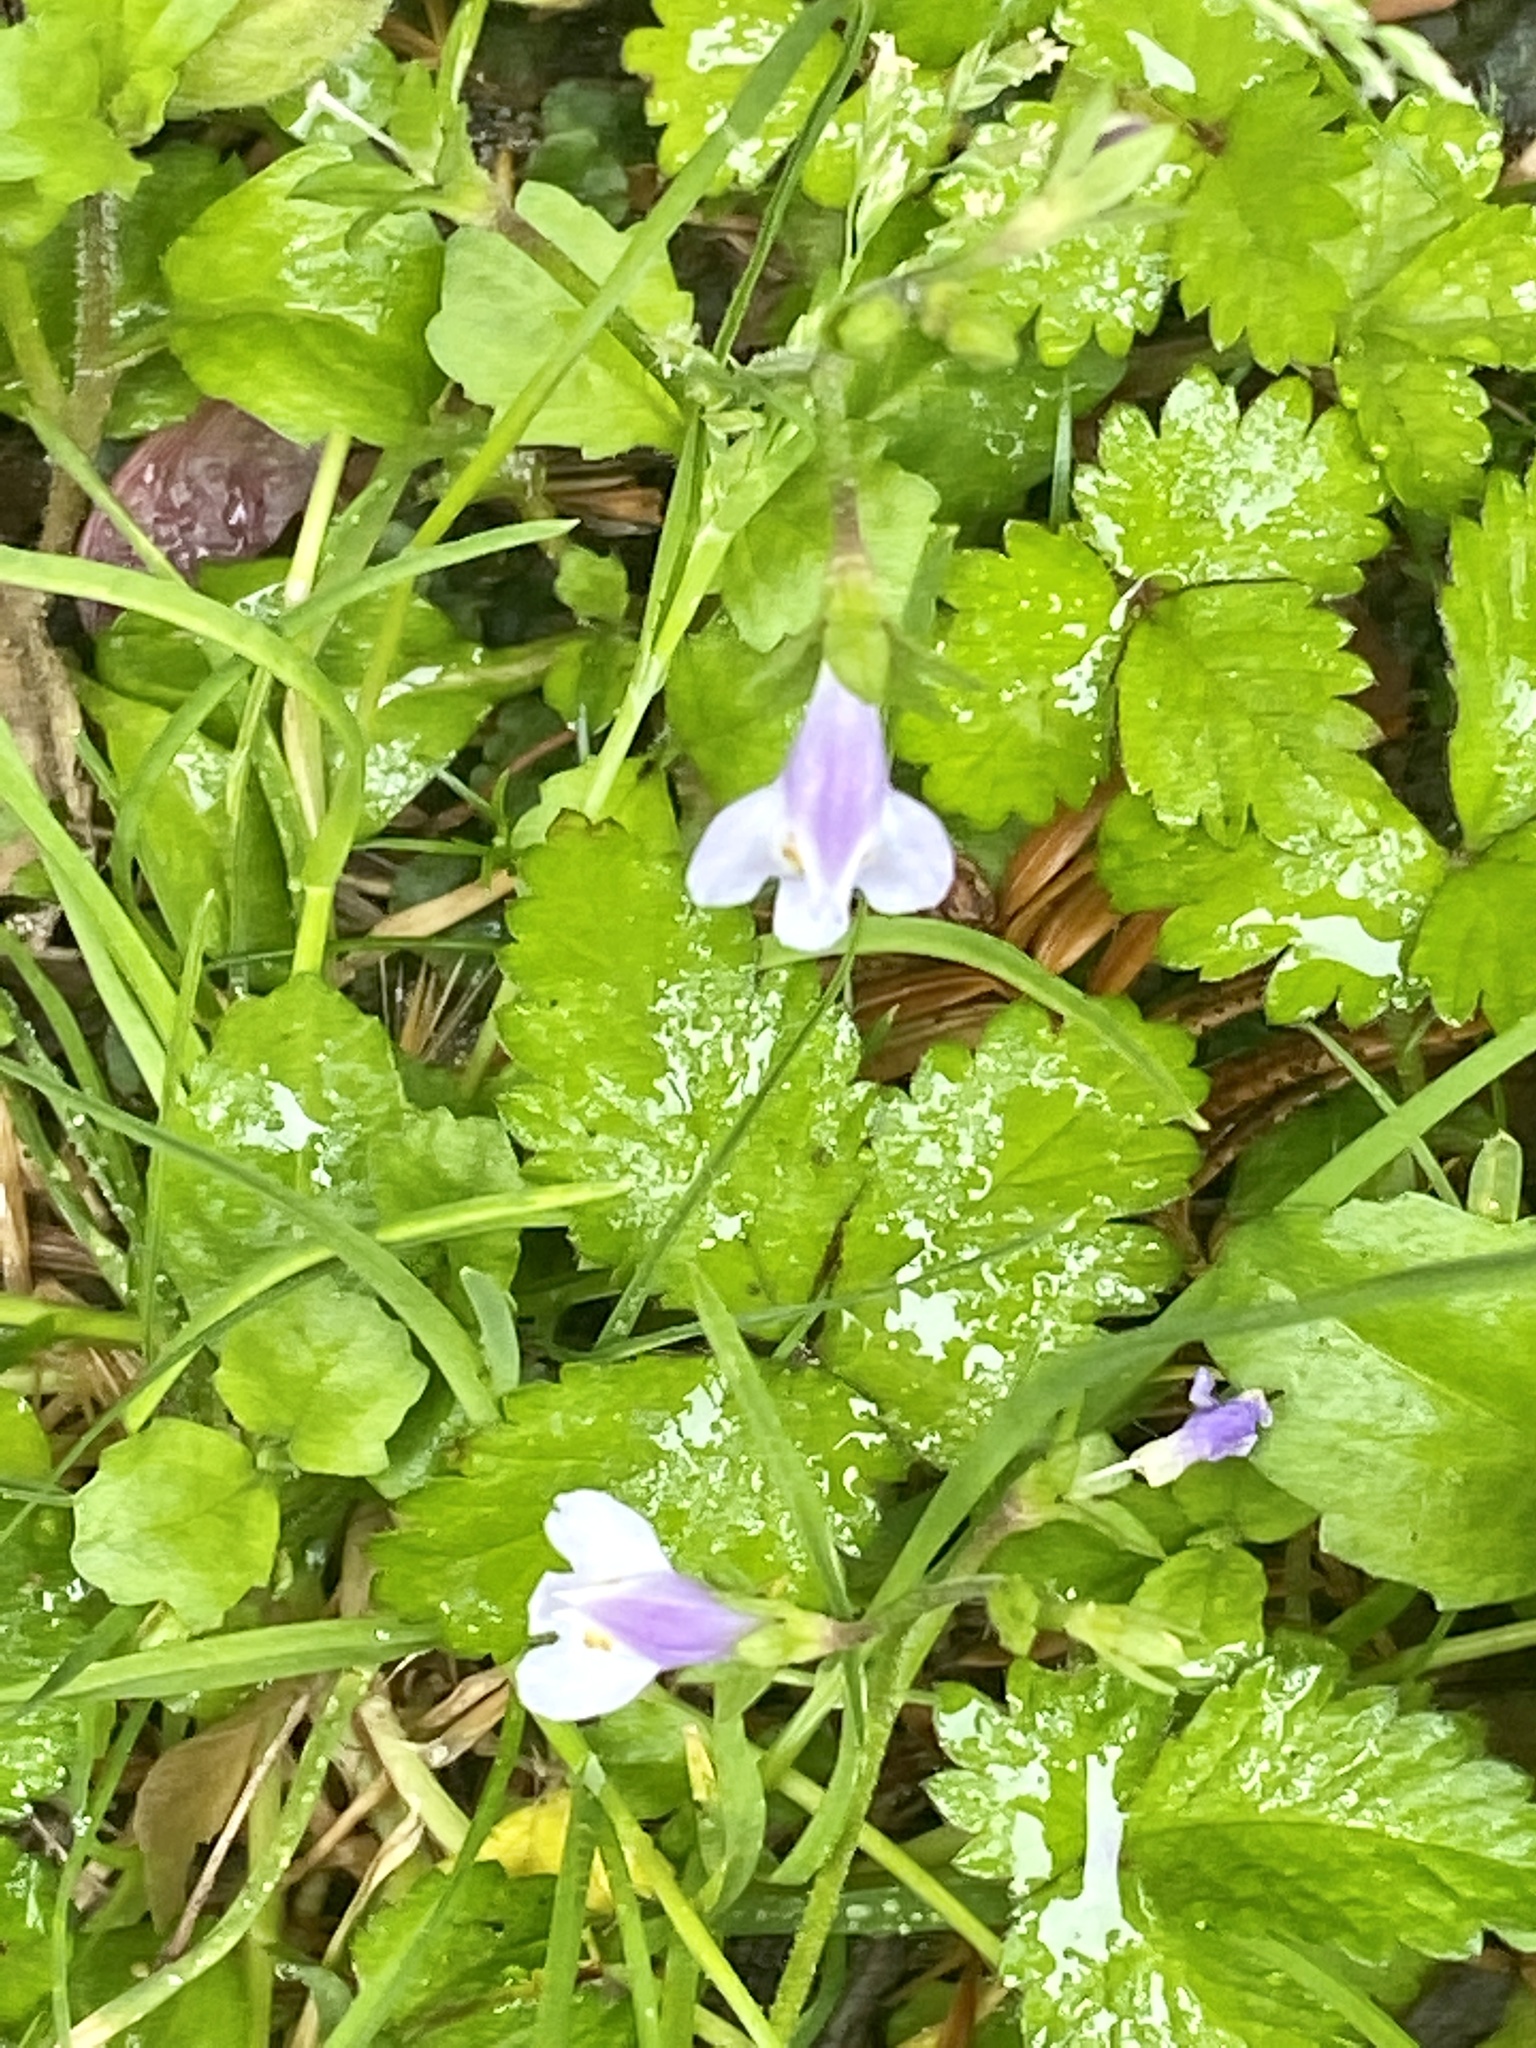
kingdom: Plantae
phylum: Tracheophyta
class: Magnoliopsida
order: Lamiales
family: Mazaceae
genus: Mazus
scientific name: Mazus pumilus
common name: Japanese mazus
